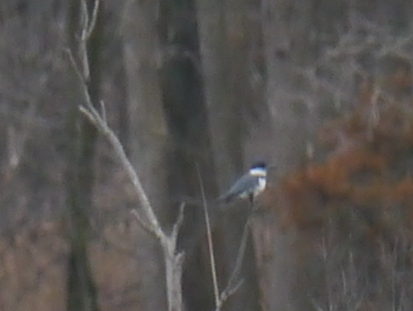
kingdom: Animalia
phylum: Chordata
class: Aves
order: Coraciiformes
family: Alcedinidae
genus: Megaceryle
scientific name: Megaceryle alcyon
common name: Belted kingfisher
